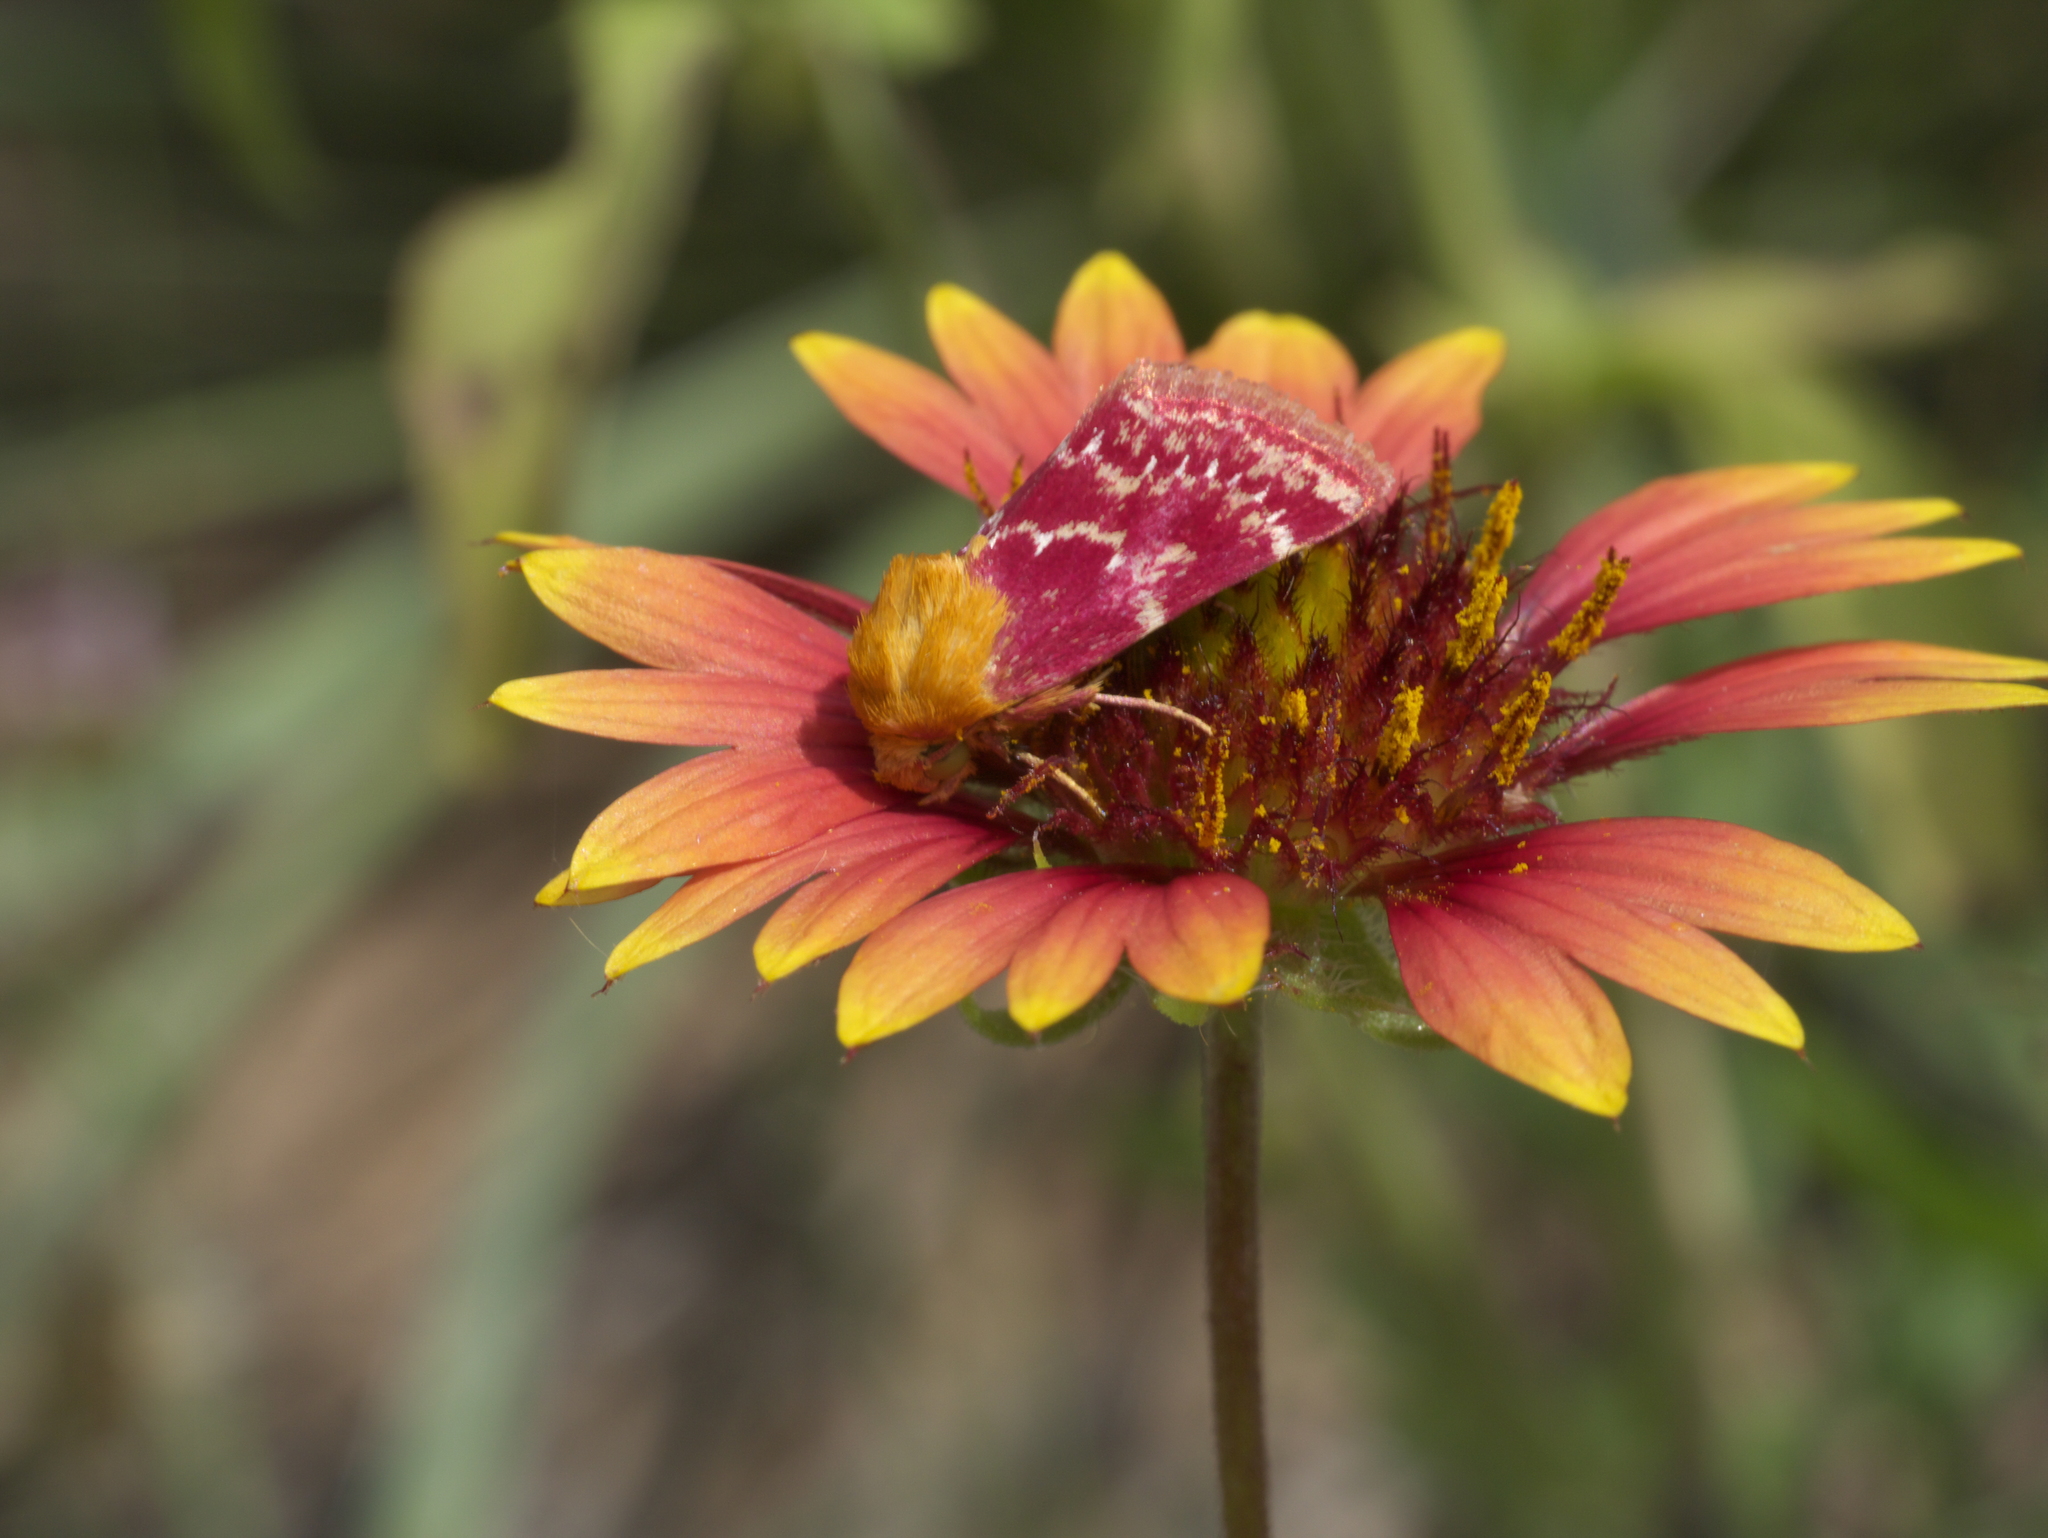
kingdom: Plantae
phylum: Tracheophyta
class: Magnoliopsida
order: Asterales
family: Asteraceae
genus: Gaillardia
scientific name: Gaillardia pulchella
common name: Firewheel
